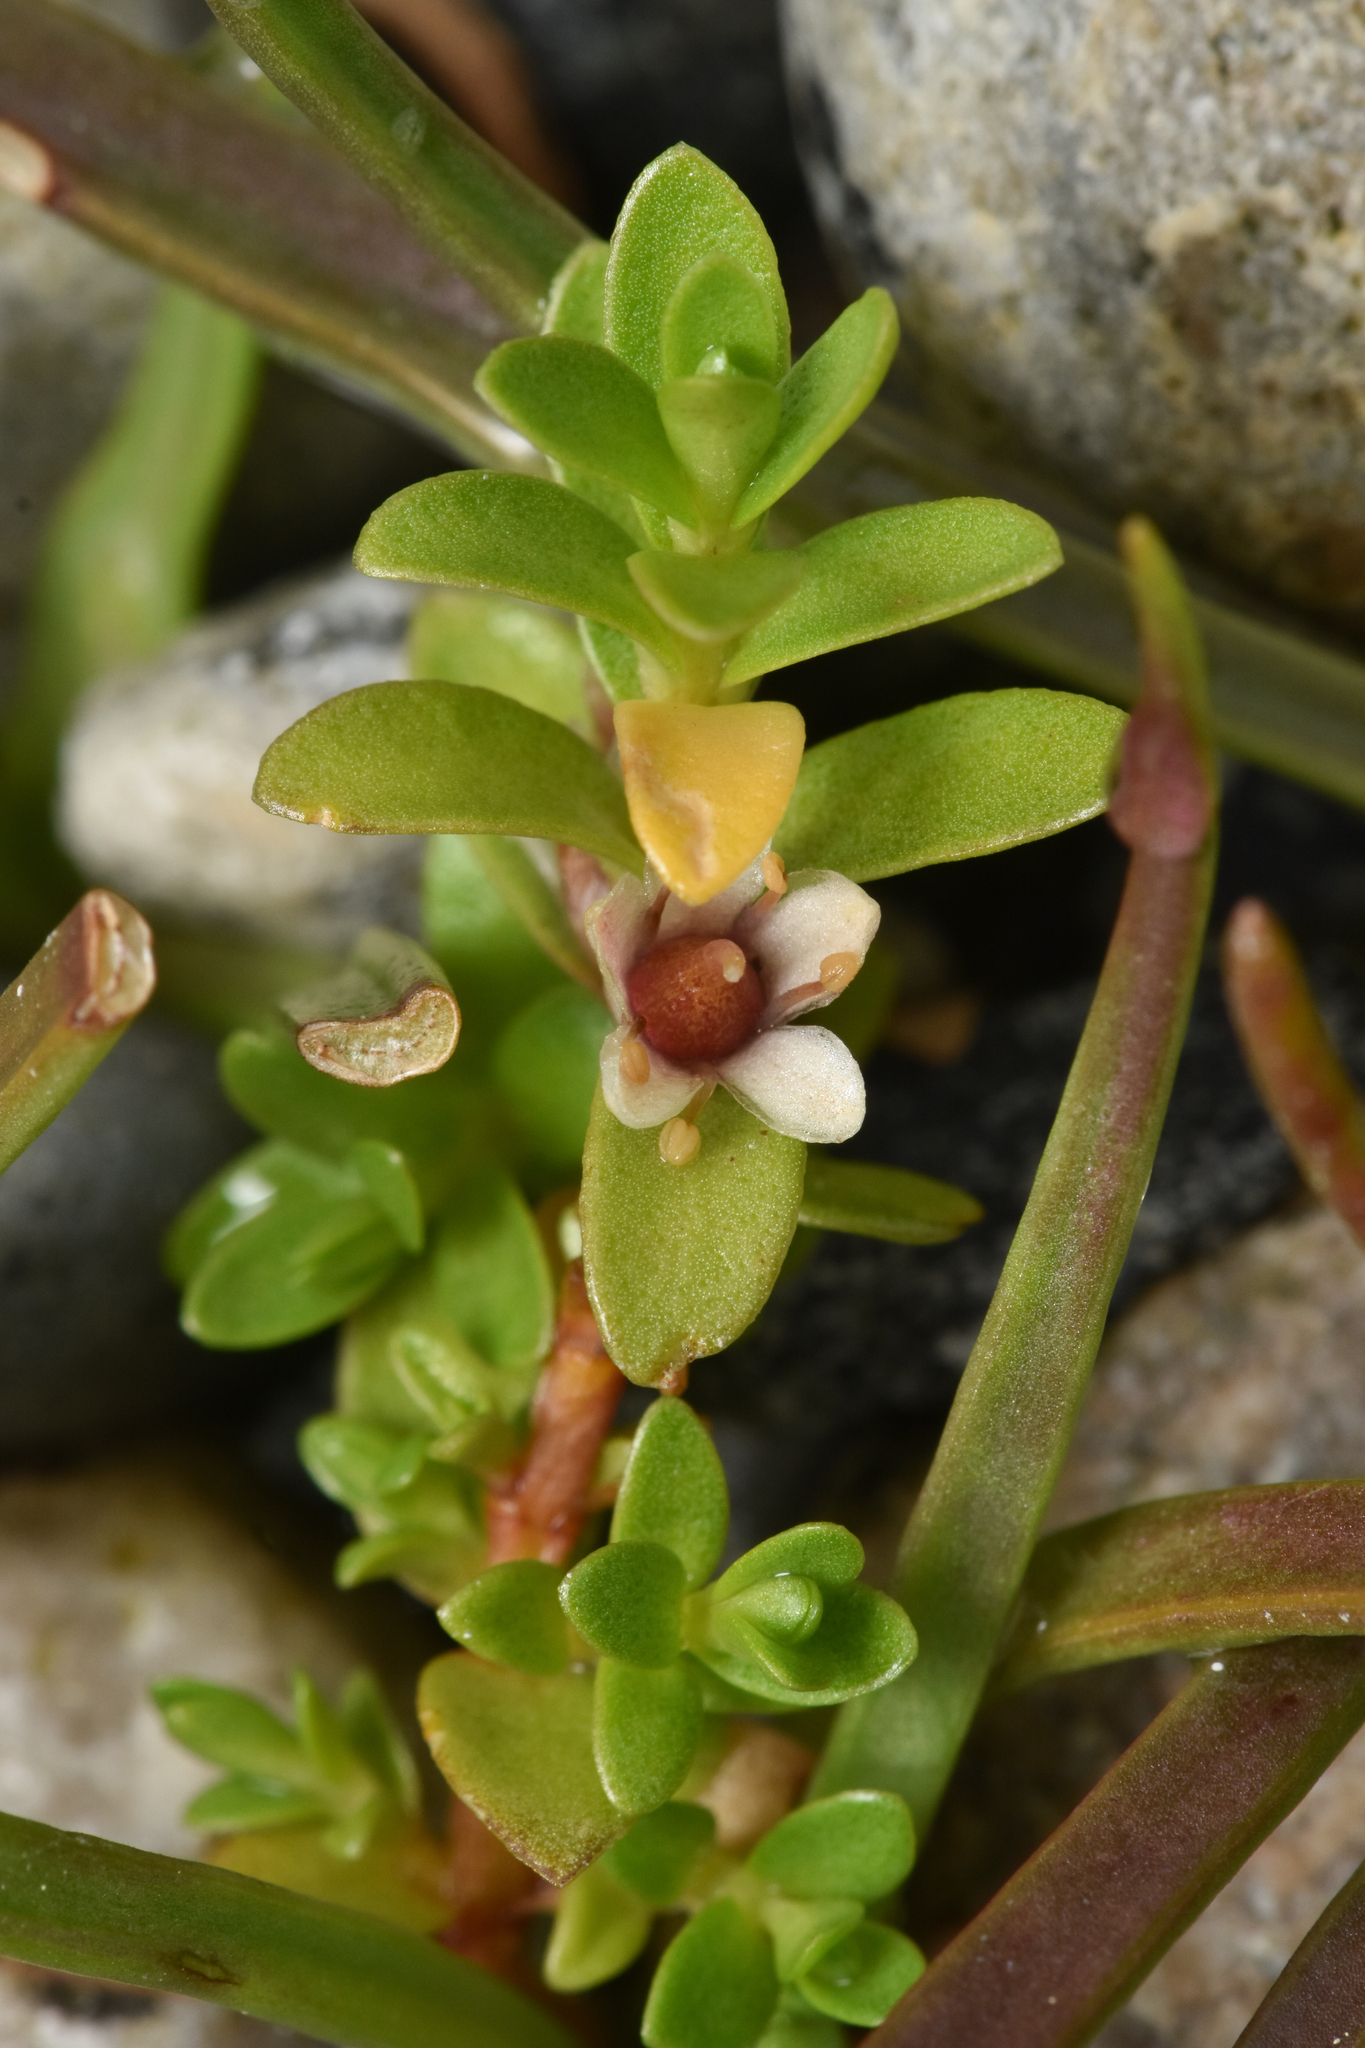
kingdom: Plantae
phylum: Tracheophyta
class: Magnoliopsida
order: Ericales
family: Primulaceae
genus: Lysimachia
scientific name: Lysimachia maritima
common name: Sea milkwort
